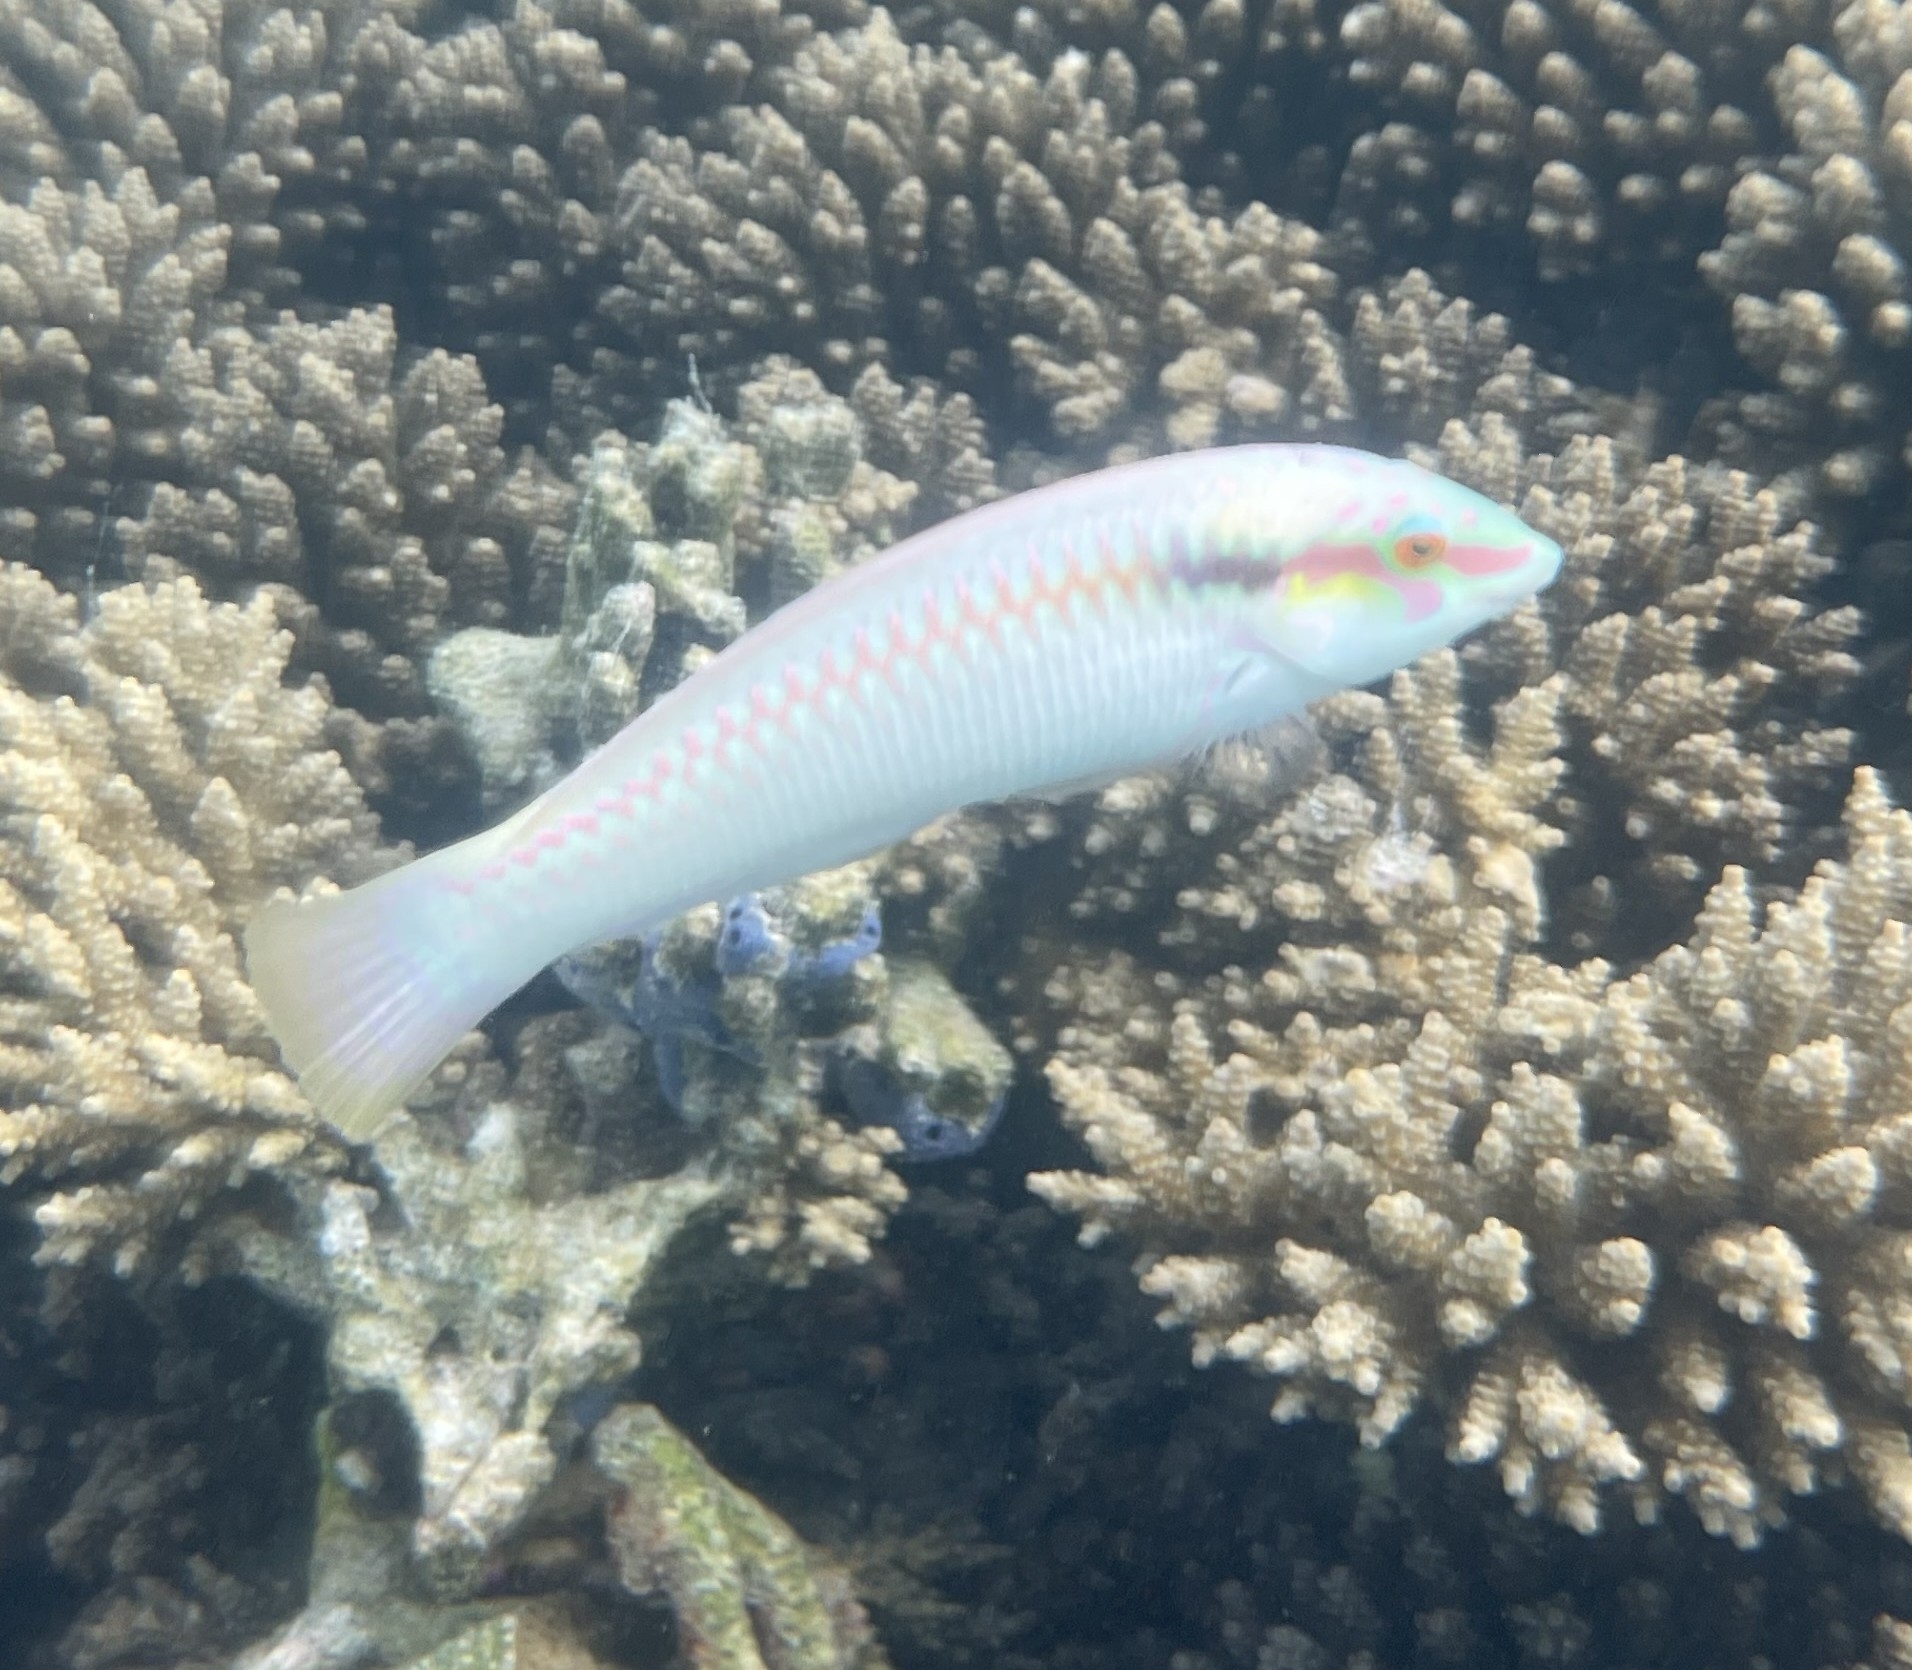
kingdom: Animalia
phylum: Chordata
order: Perciformes
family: Labridae
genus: Halichoeres
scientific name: Halichoeres scapularis
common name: Brownbanded wrasse
